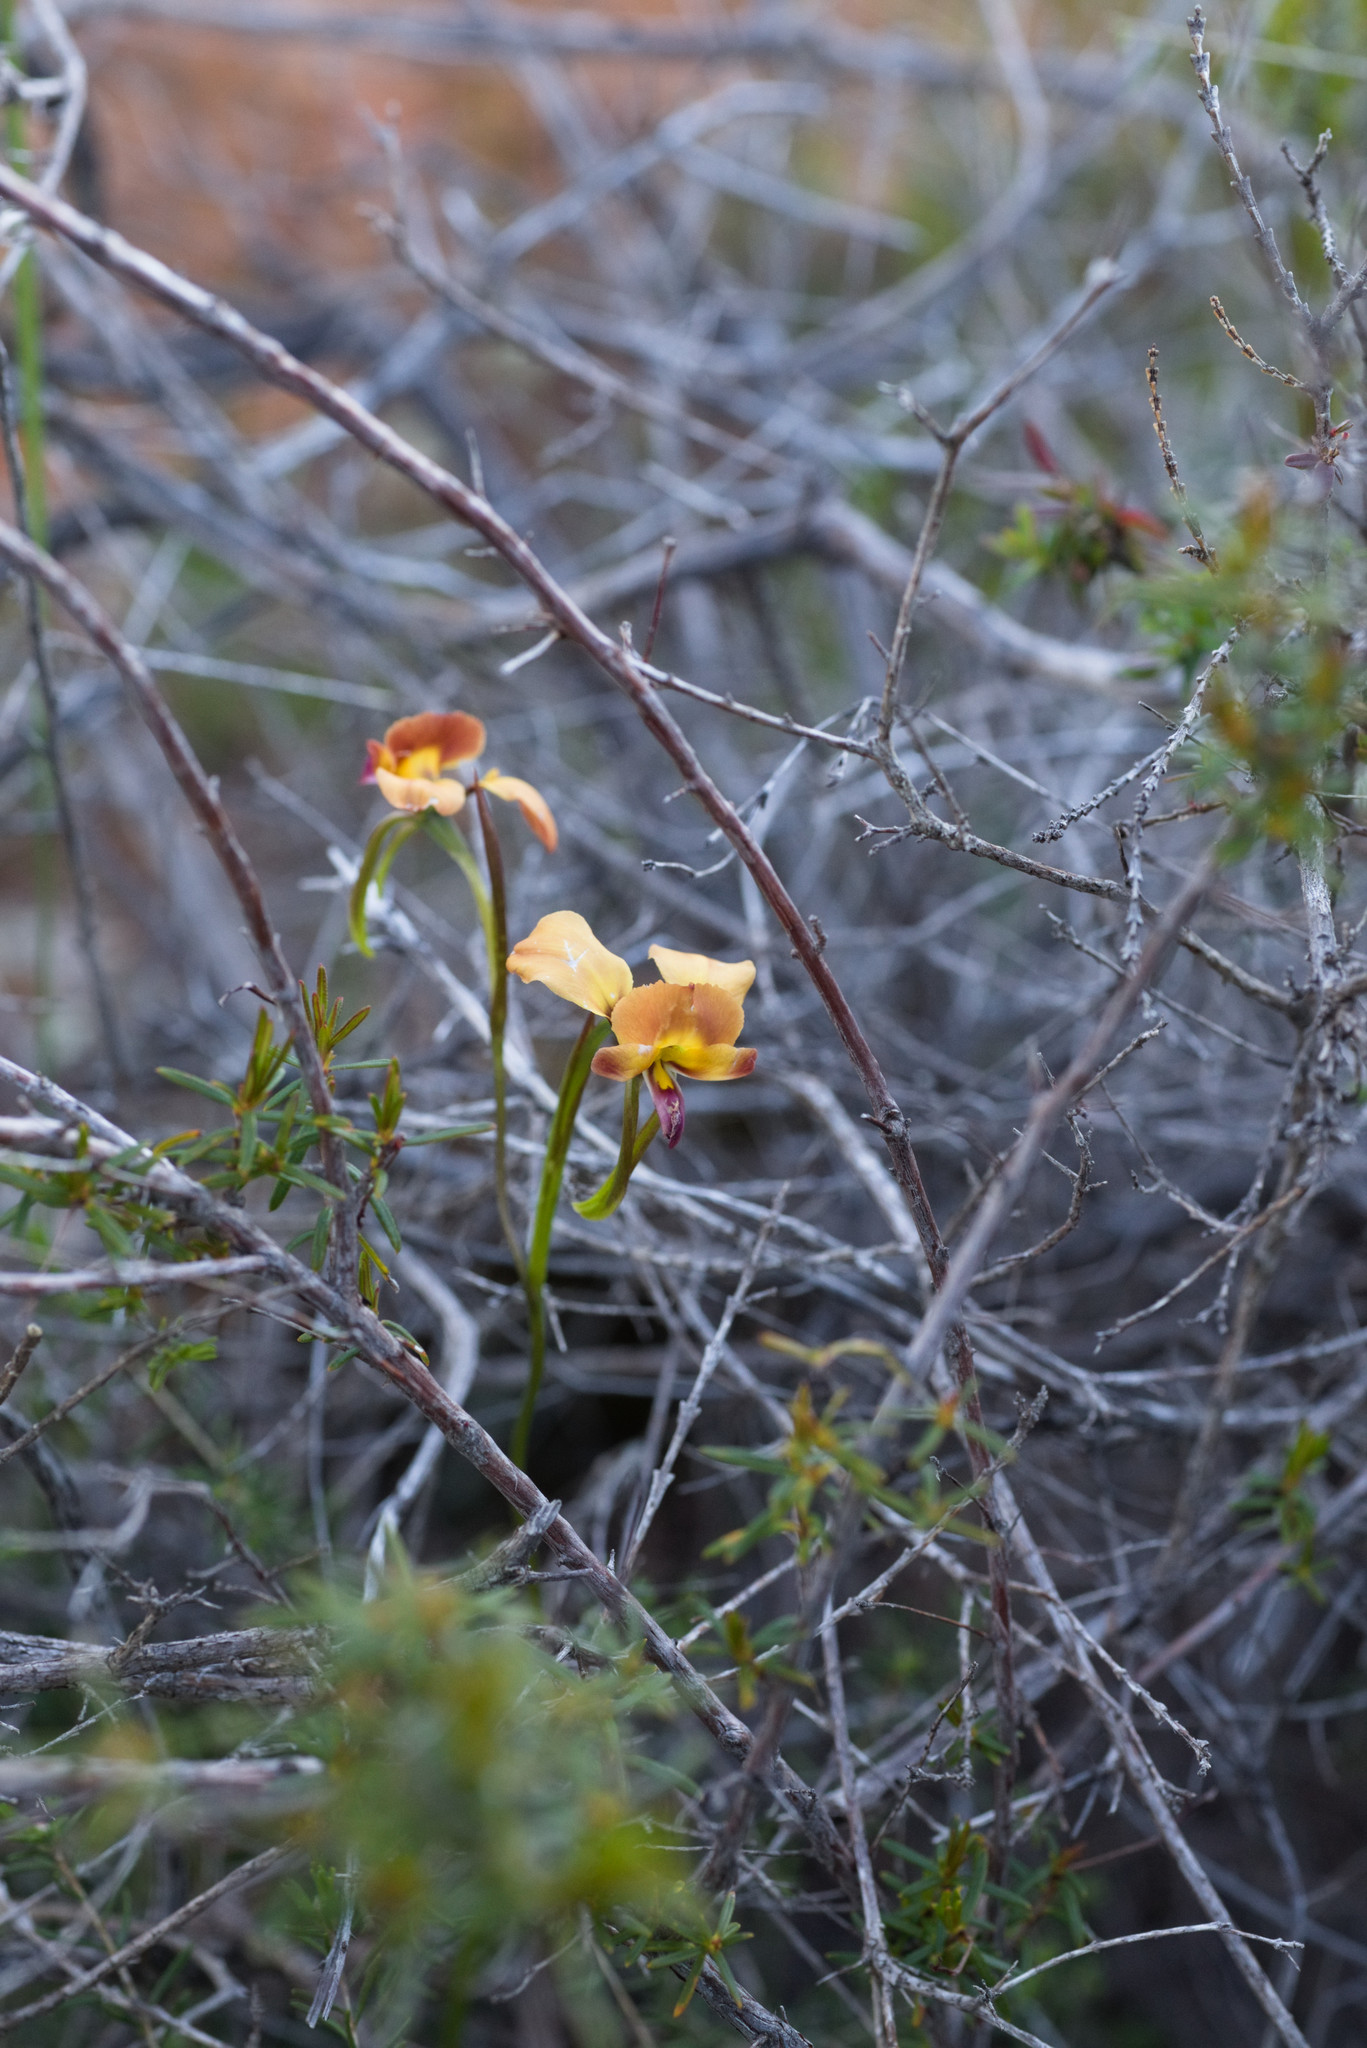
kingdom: Plantae
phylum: Tracheophyta
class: Liliopsida
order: Asparagales
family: Orchidaceae
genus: Diuris
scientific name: Diuris jonesii
